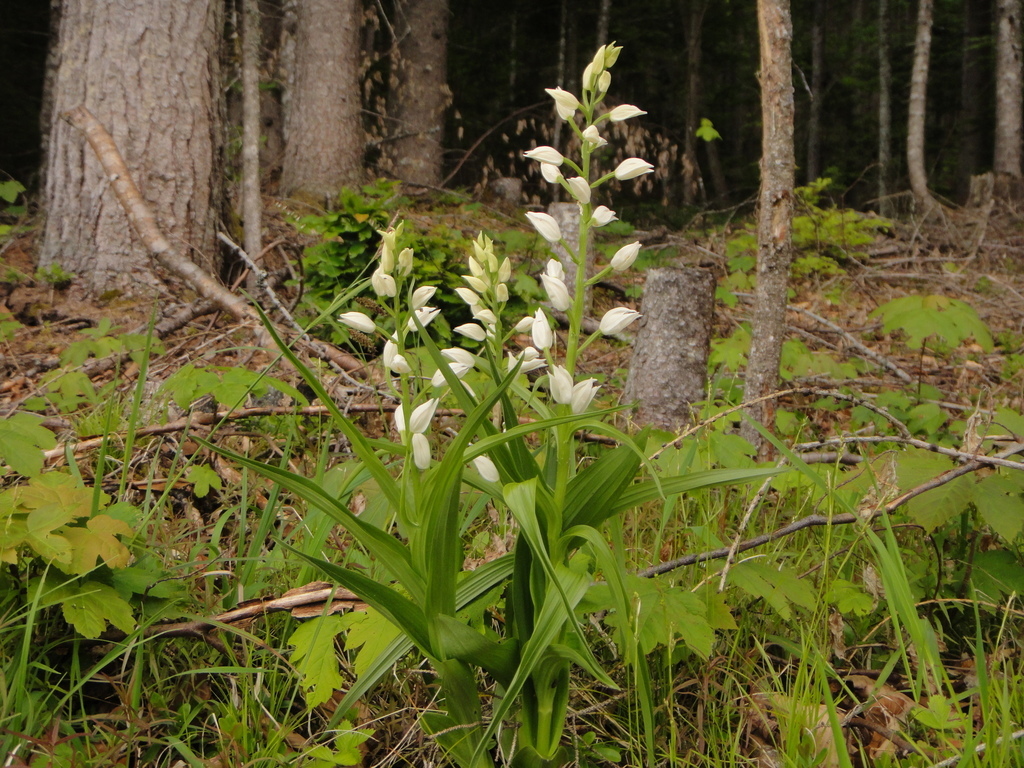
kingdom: Plantae
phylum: Tracheophyta
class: Liliopsida
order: Asparagales
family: Orchidaceae
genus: Cephalanthera
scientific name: Cephalanthera longifolia
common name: Narrow-leaved helleborine
